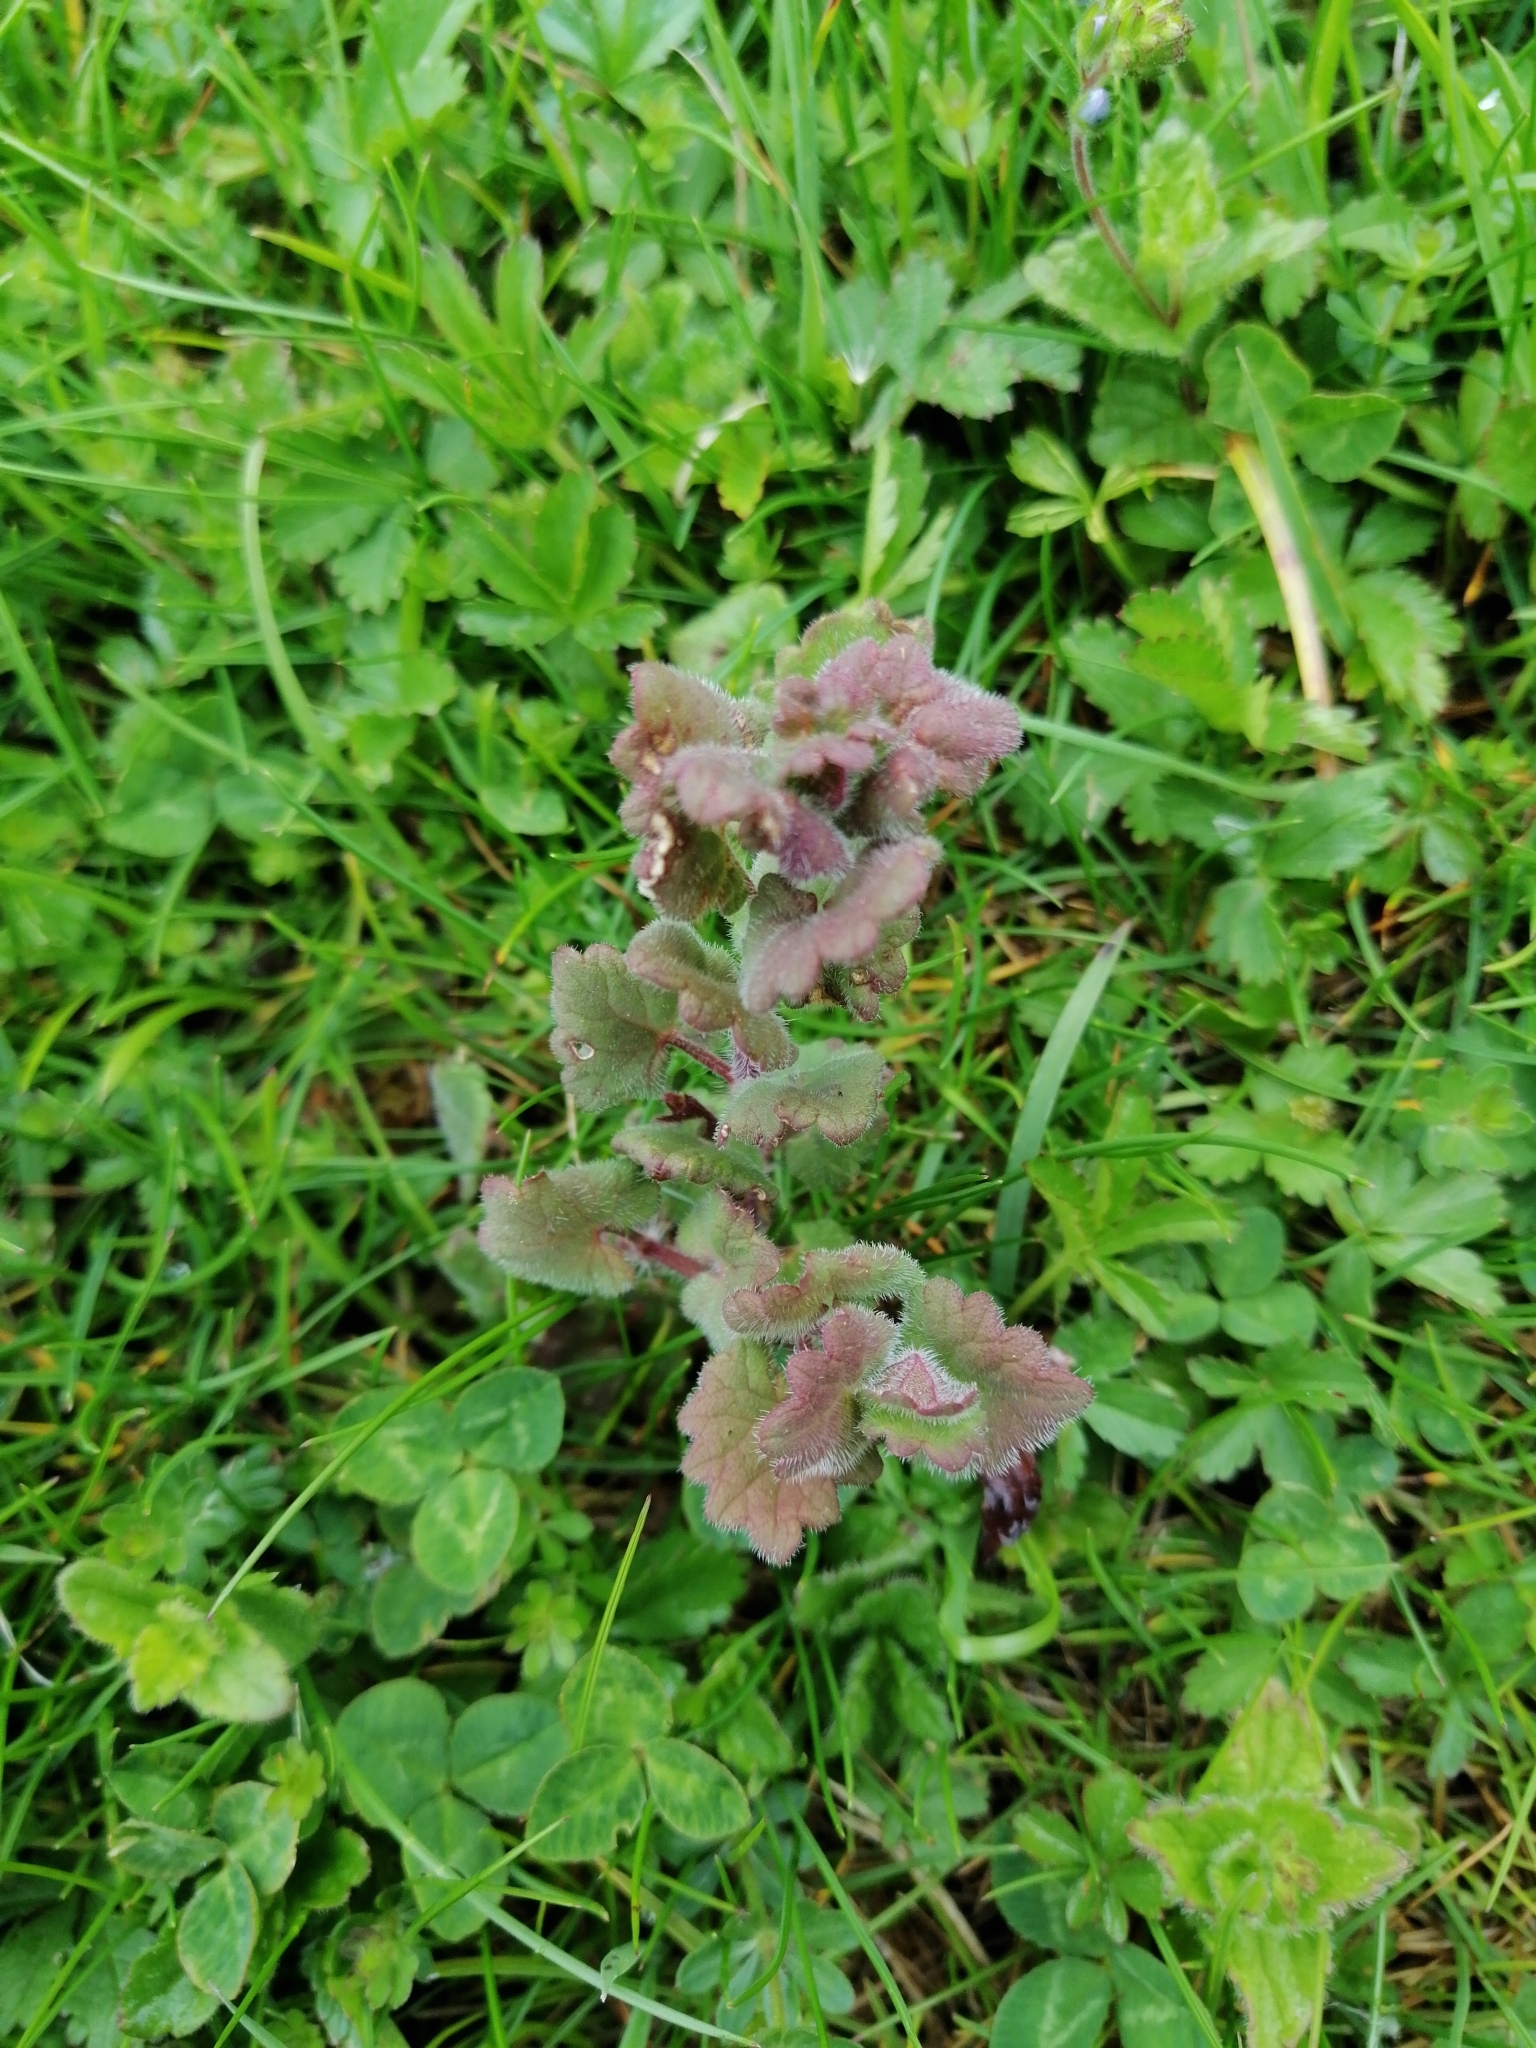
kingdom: Plantae
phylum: Tracheophyta
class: Magnoliopsida
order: Lamiales
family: Lamiaceae
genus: Glechoma
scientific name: Glechoma hederacea
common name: Ground ivy
